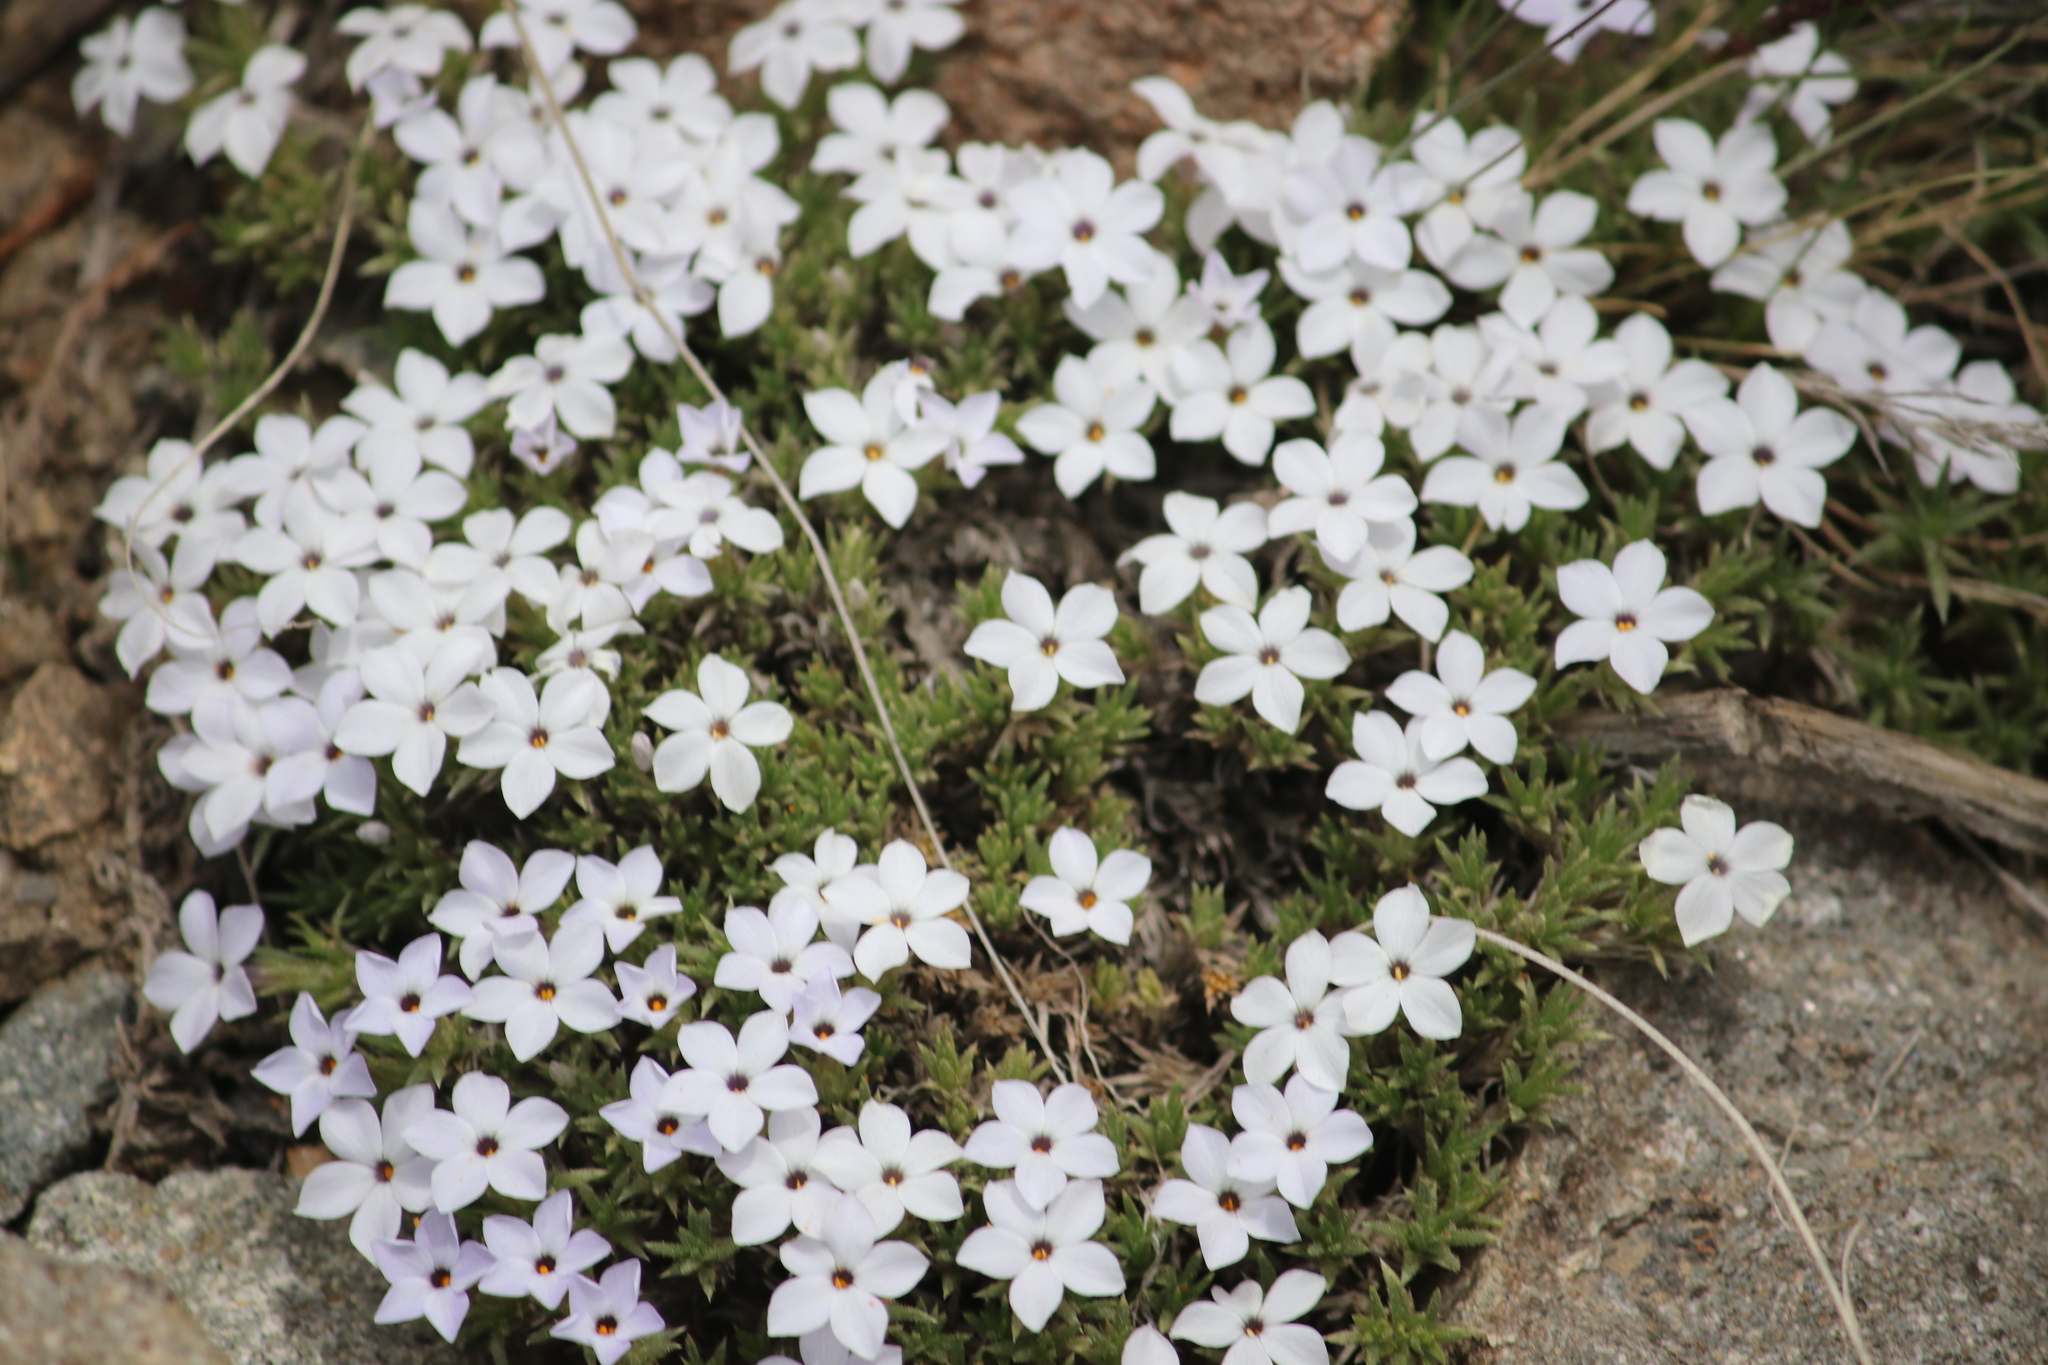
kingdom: Plantae
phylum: Tracheophyta
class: Magnoliopsida
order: Ericales
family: Polemoniaceae
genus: Phlox
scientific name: Phlox condensata
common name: Compact phlox
